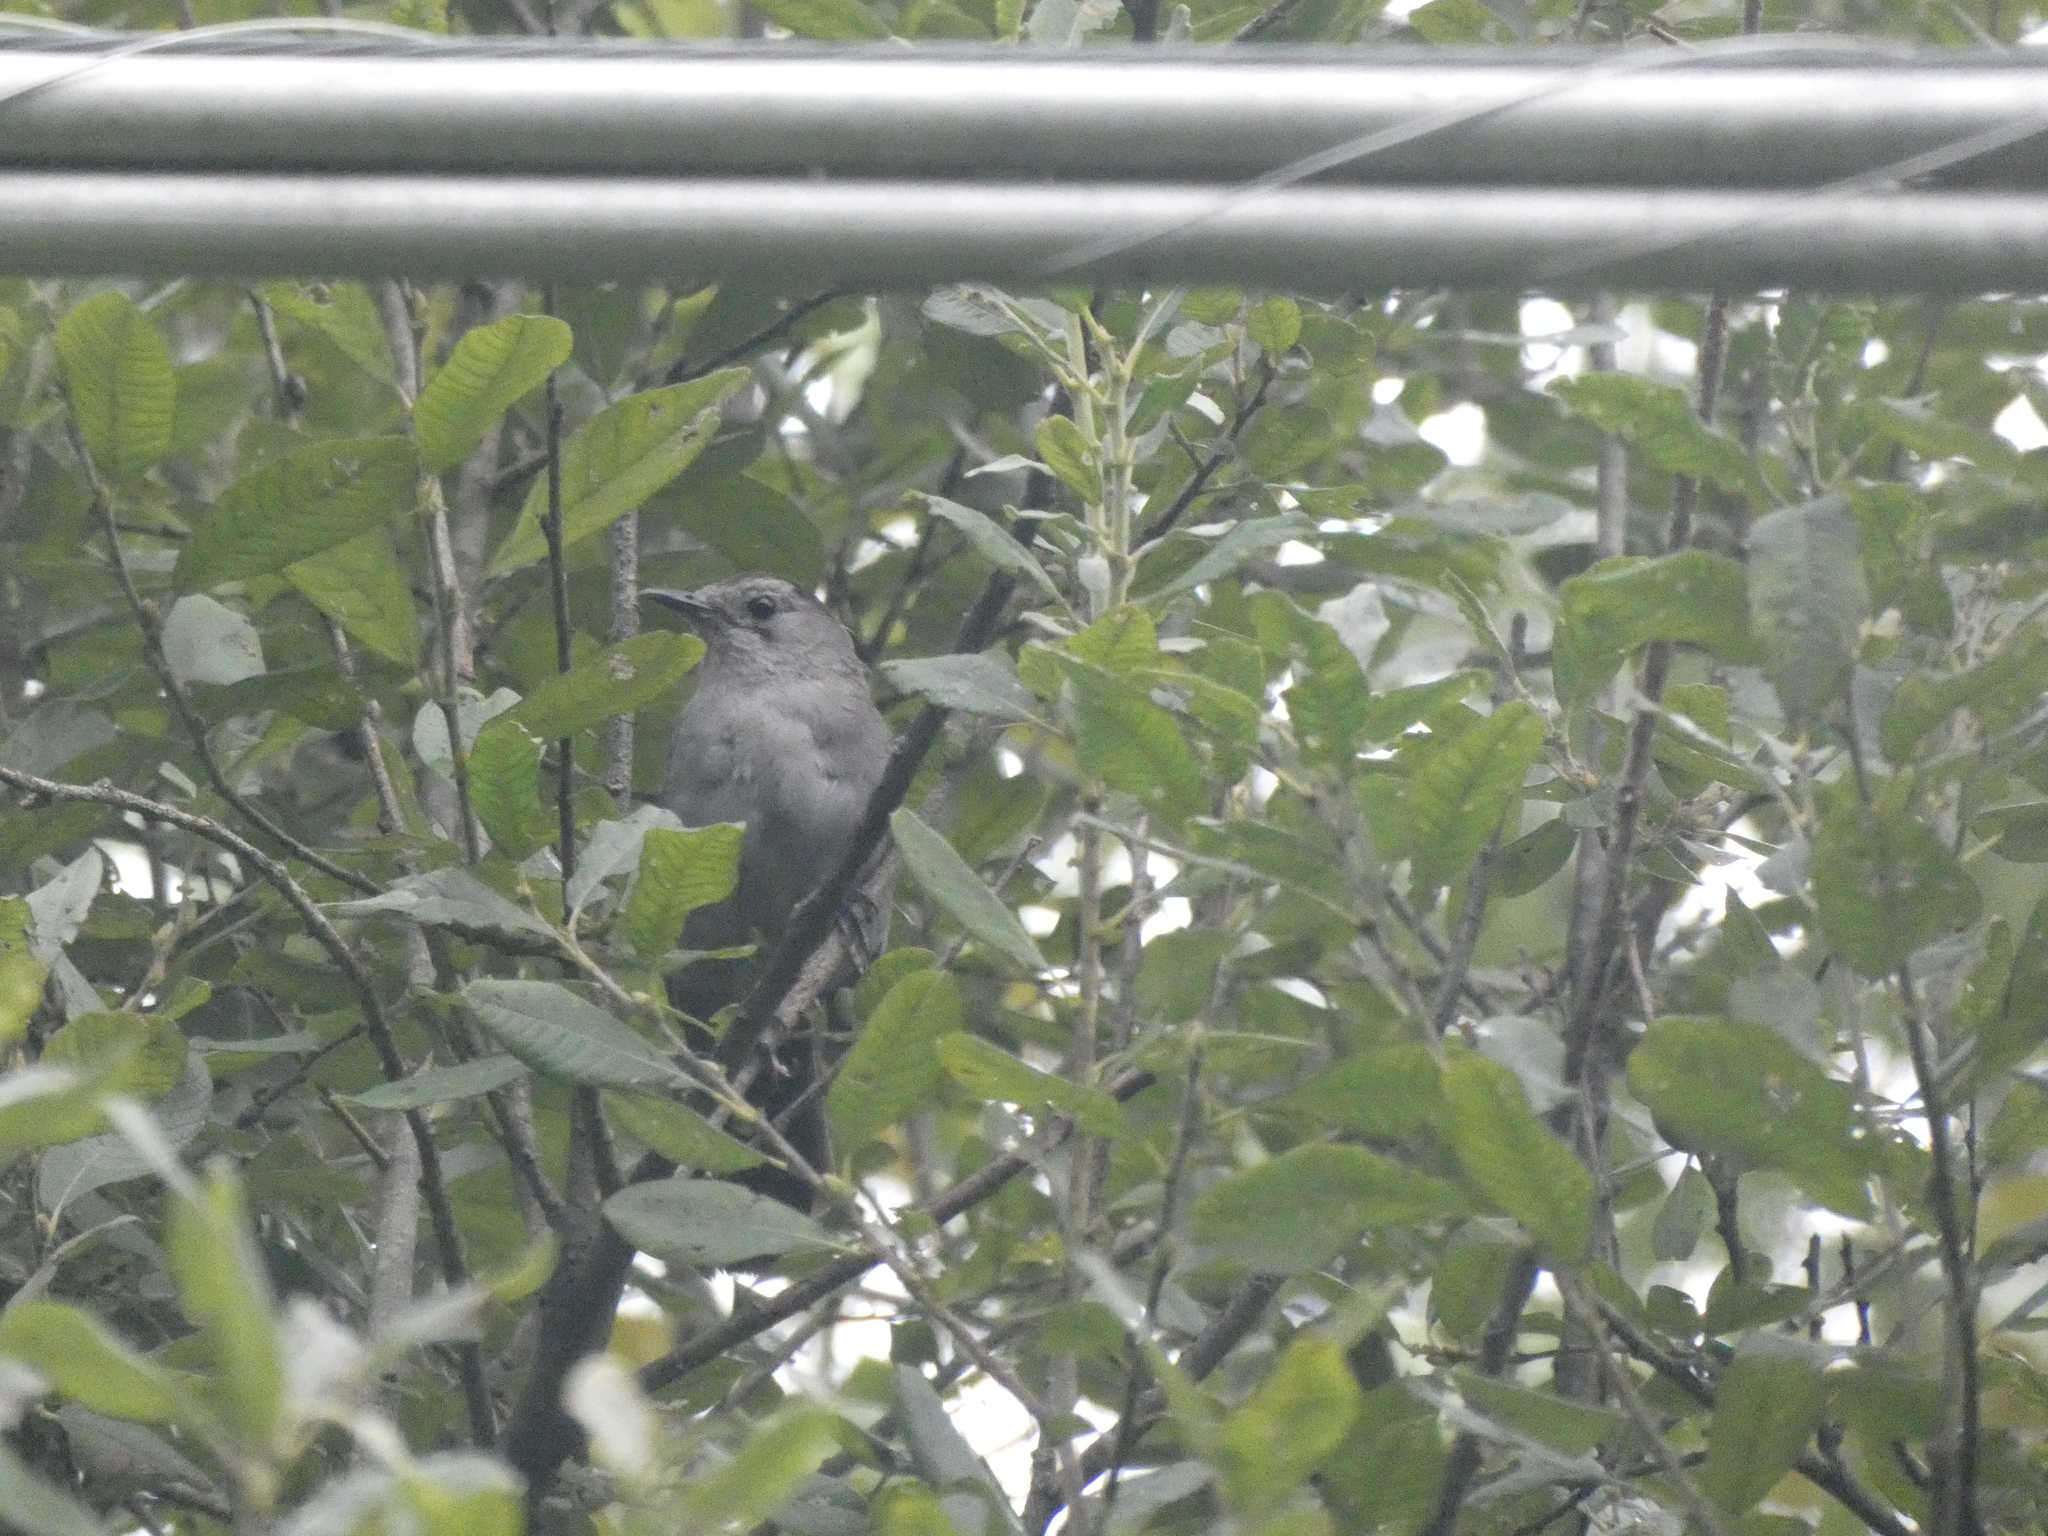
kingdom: Animalia
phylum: Chordata
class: Aves
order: Passeriformes
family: Mimidae
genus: Dumetella
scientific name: Dumetella carolinensis
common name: Gray catbird
